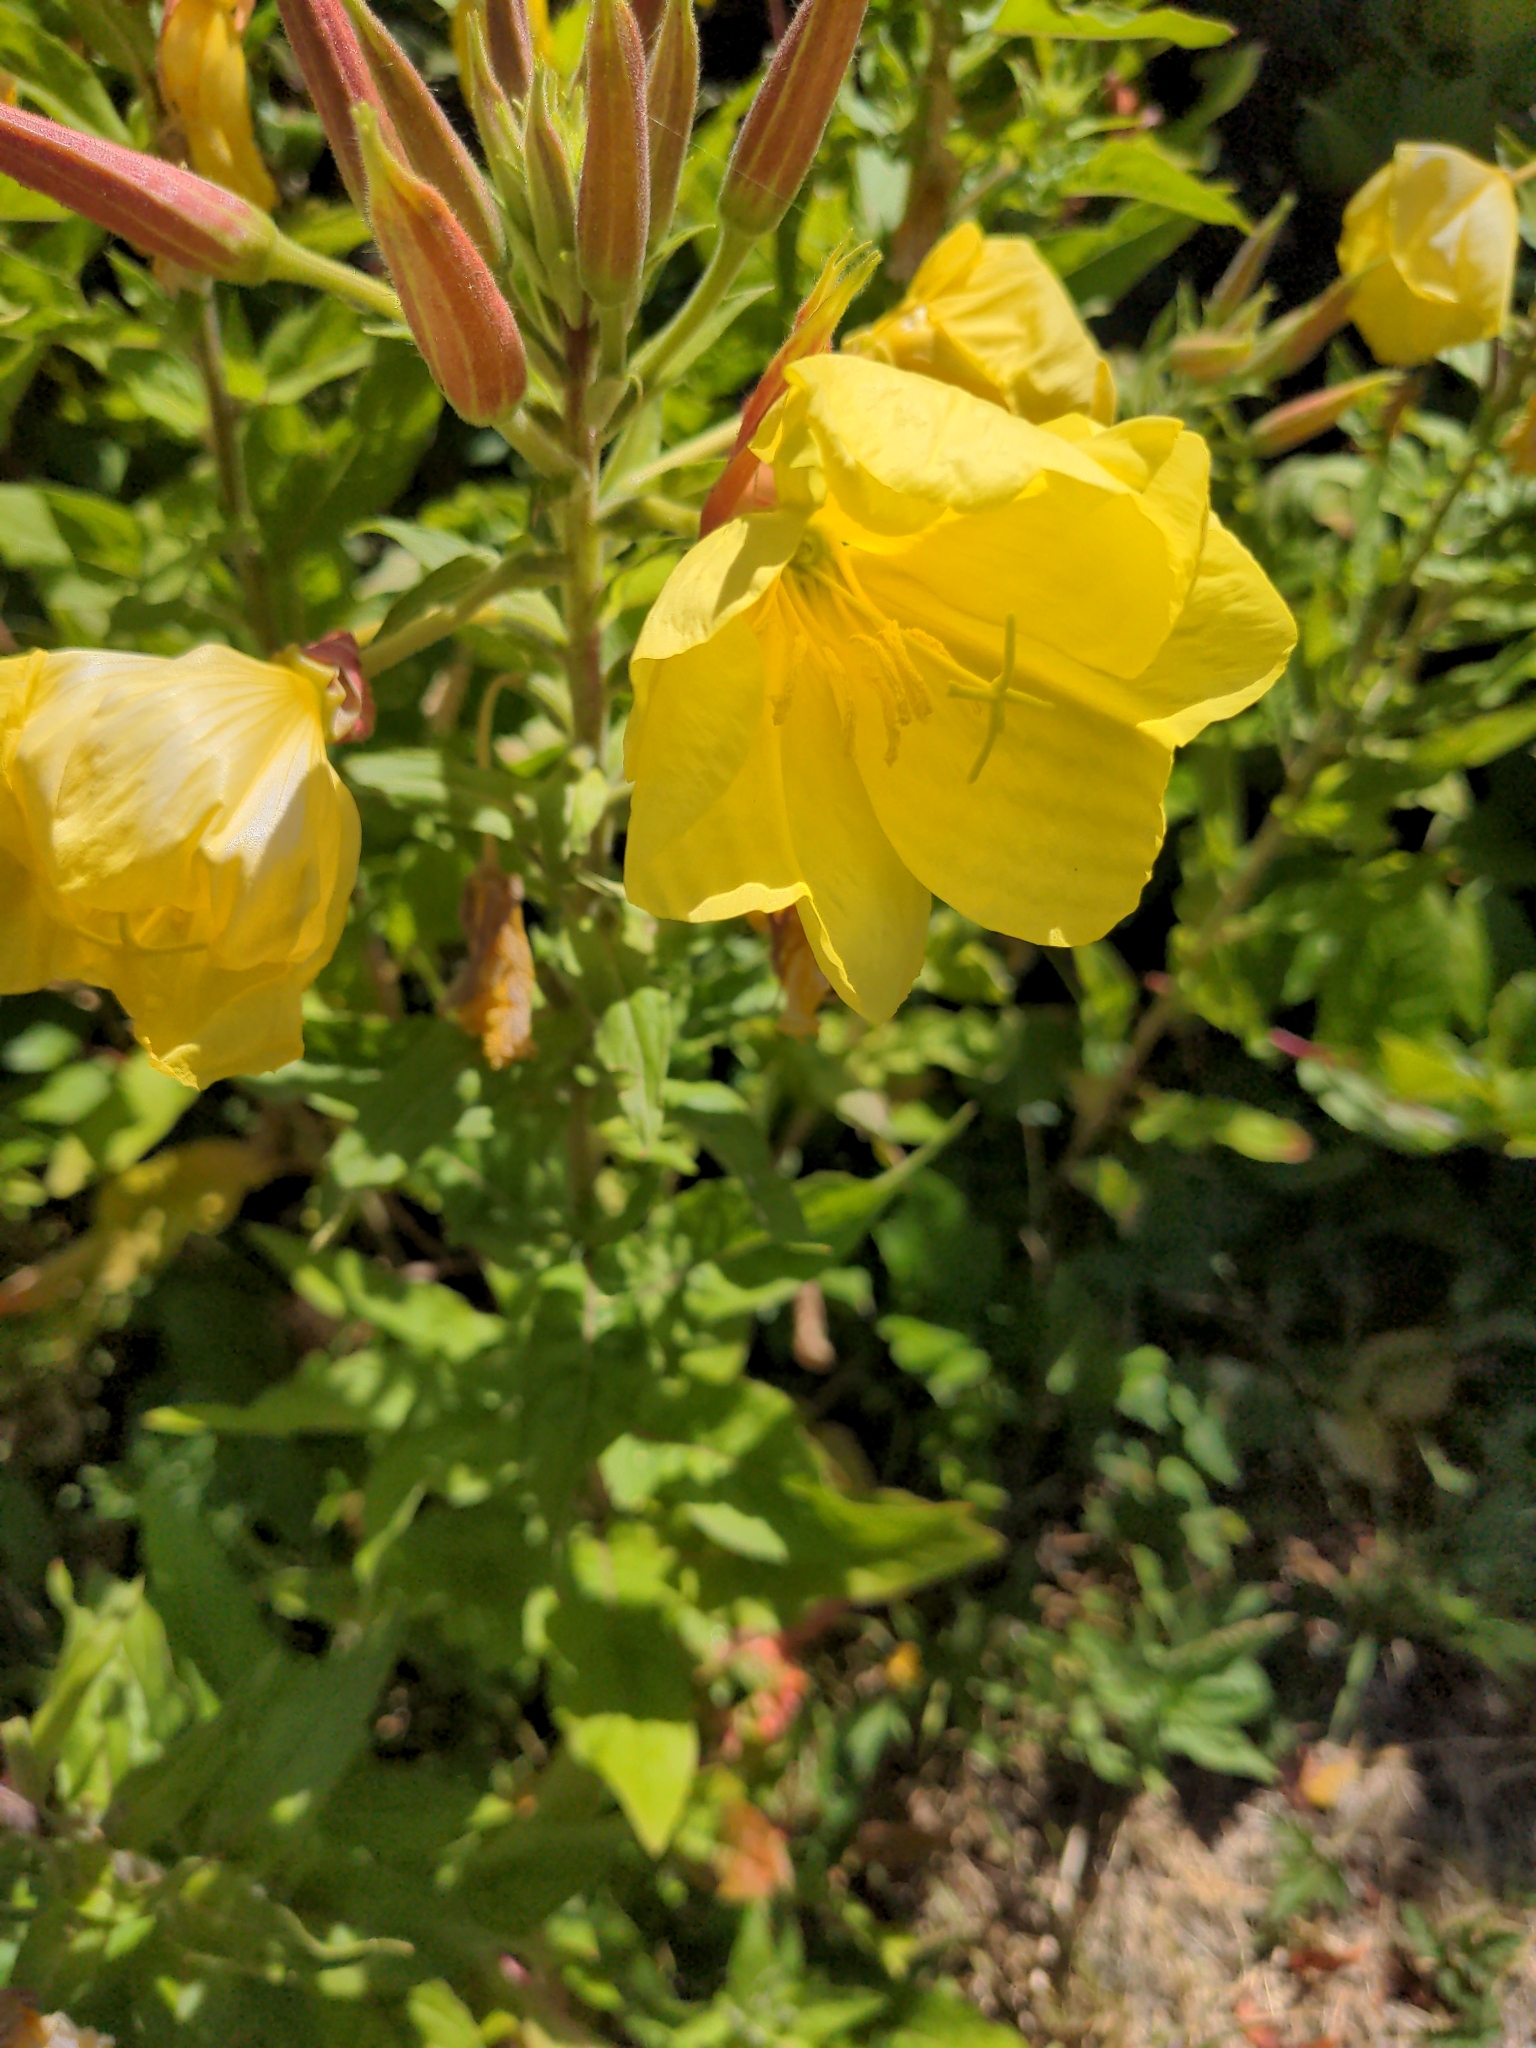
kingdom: Plantae
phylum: Tracheophyta
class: Magnoliopsida
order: Myrtales
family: Onagraceae
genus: Oenothera
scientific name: Oenothera glazioviana
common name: Large-flowered evening-primrose
